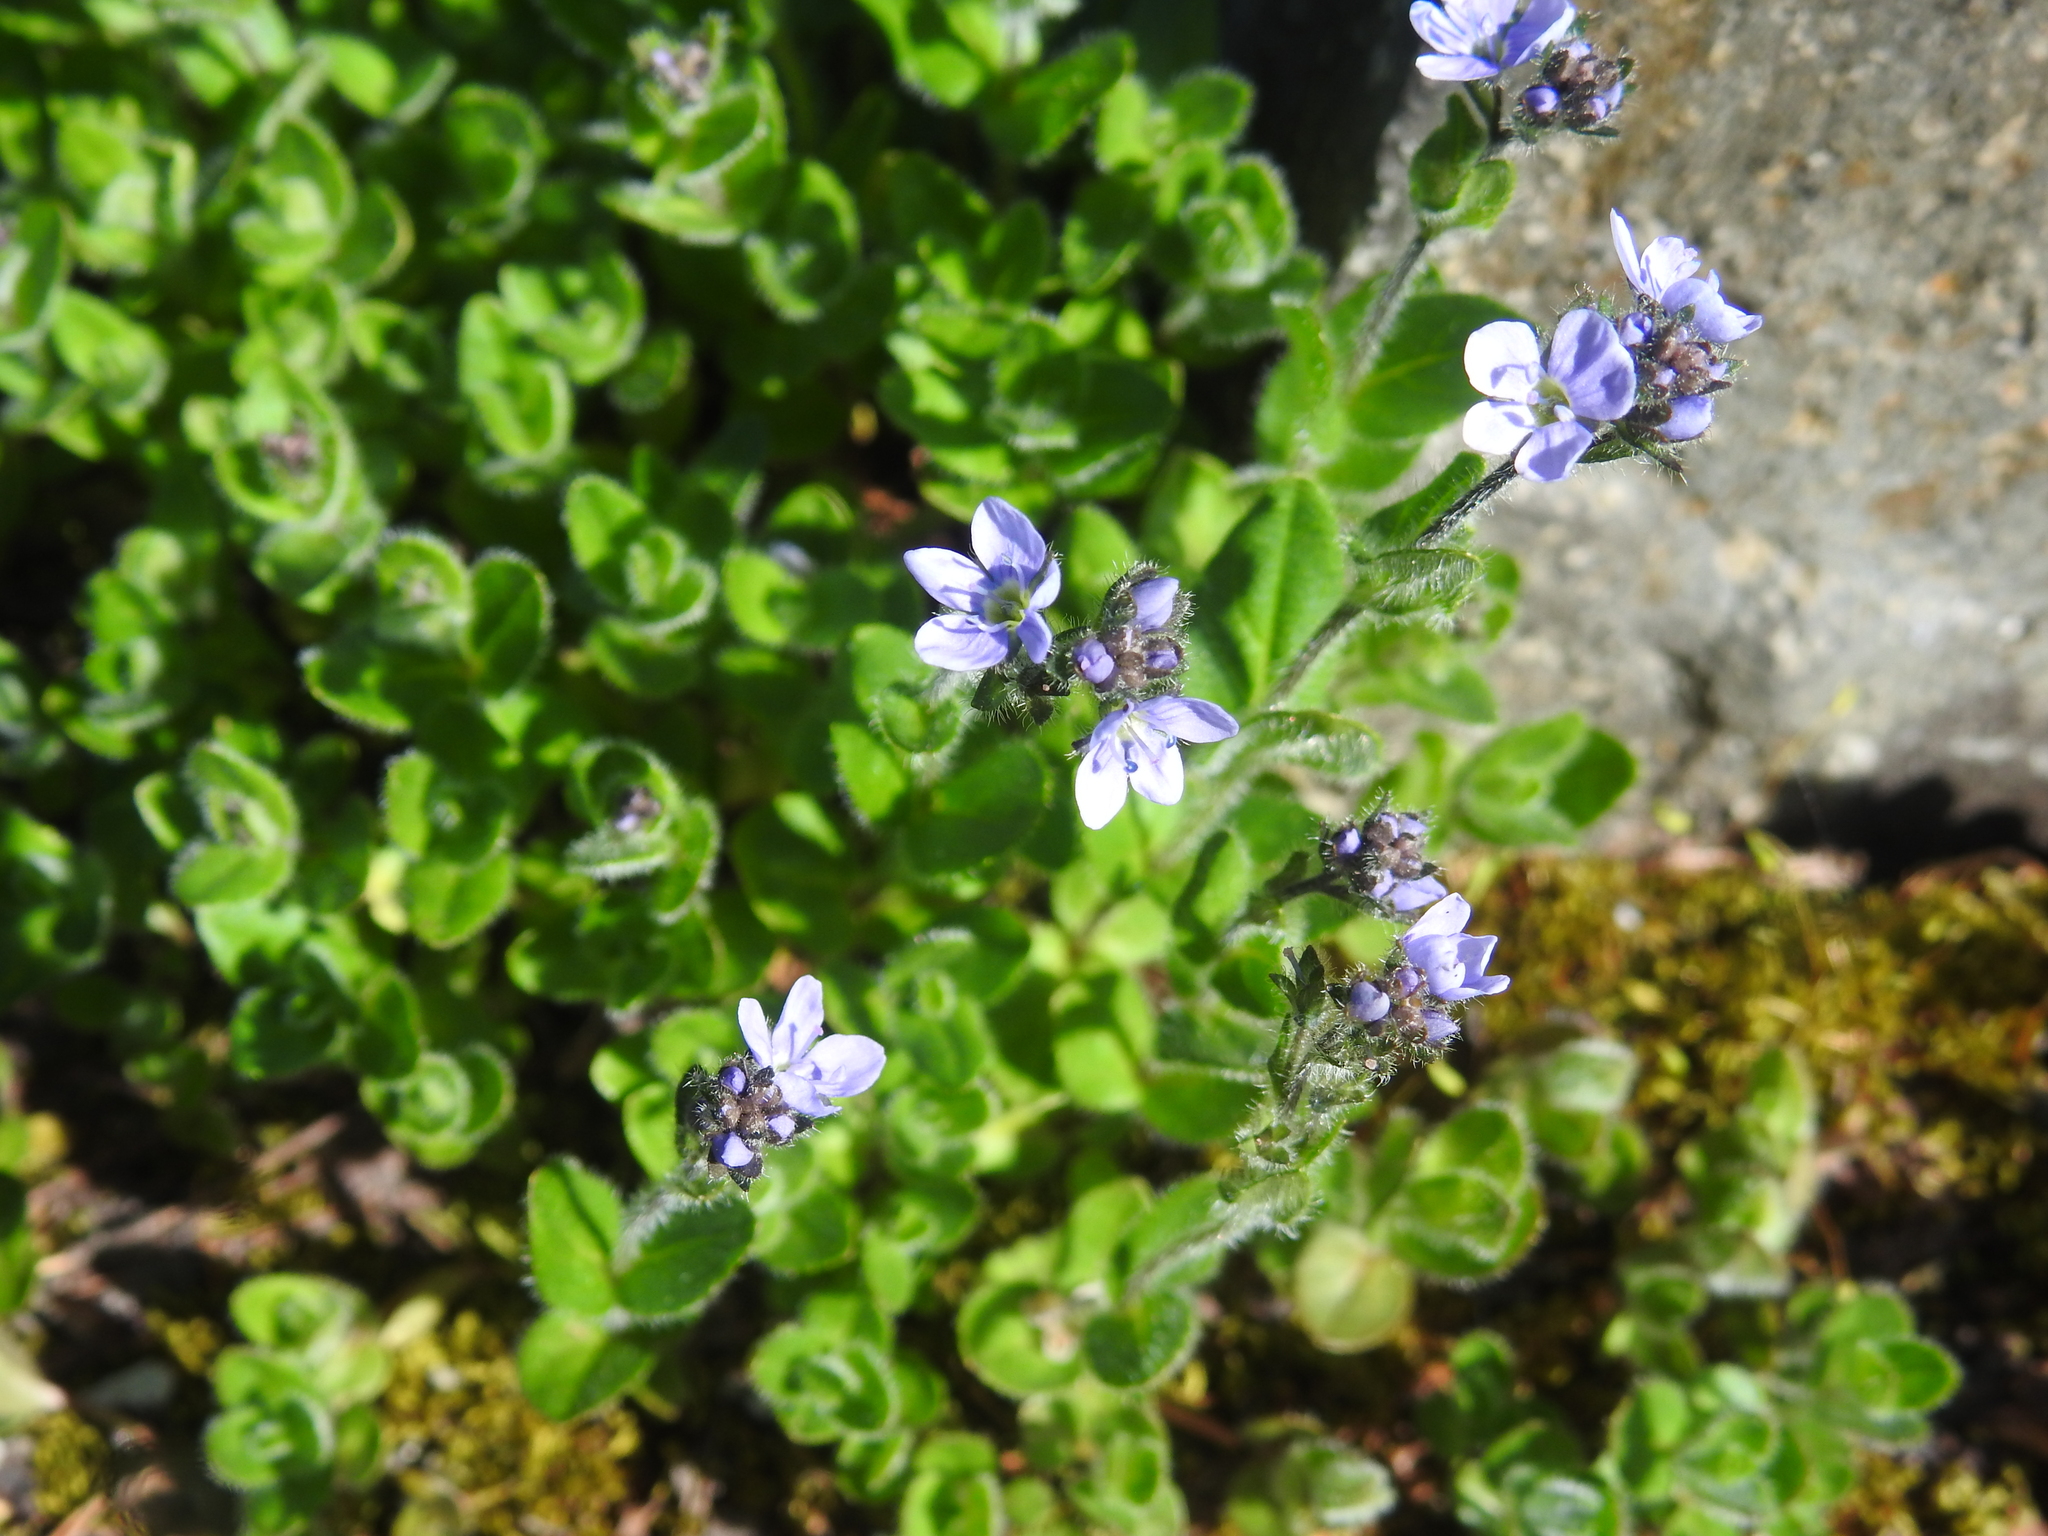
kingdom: Plantae
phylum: Tracheophyta
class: Magnoliopsida
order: Lamiales
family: Plantaginaceae
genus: Veronica
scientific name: Veronica wormskjoldii
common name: American alpine speedwell
